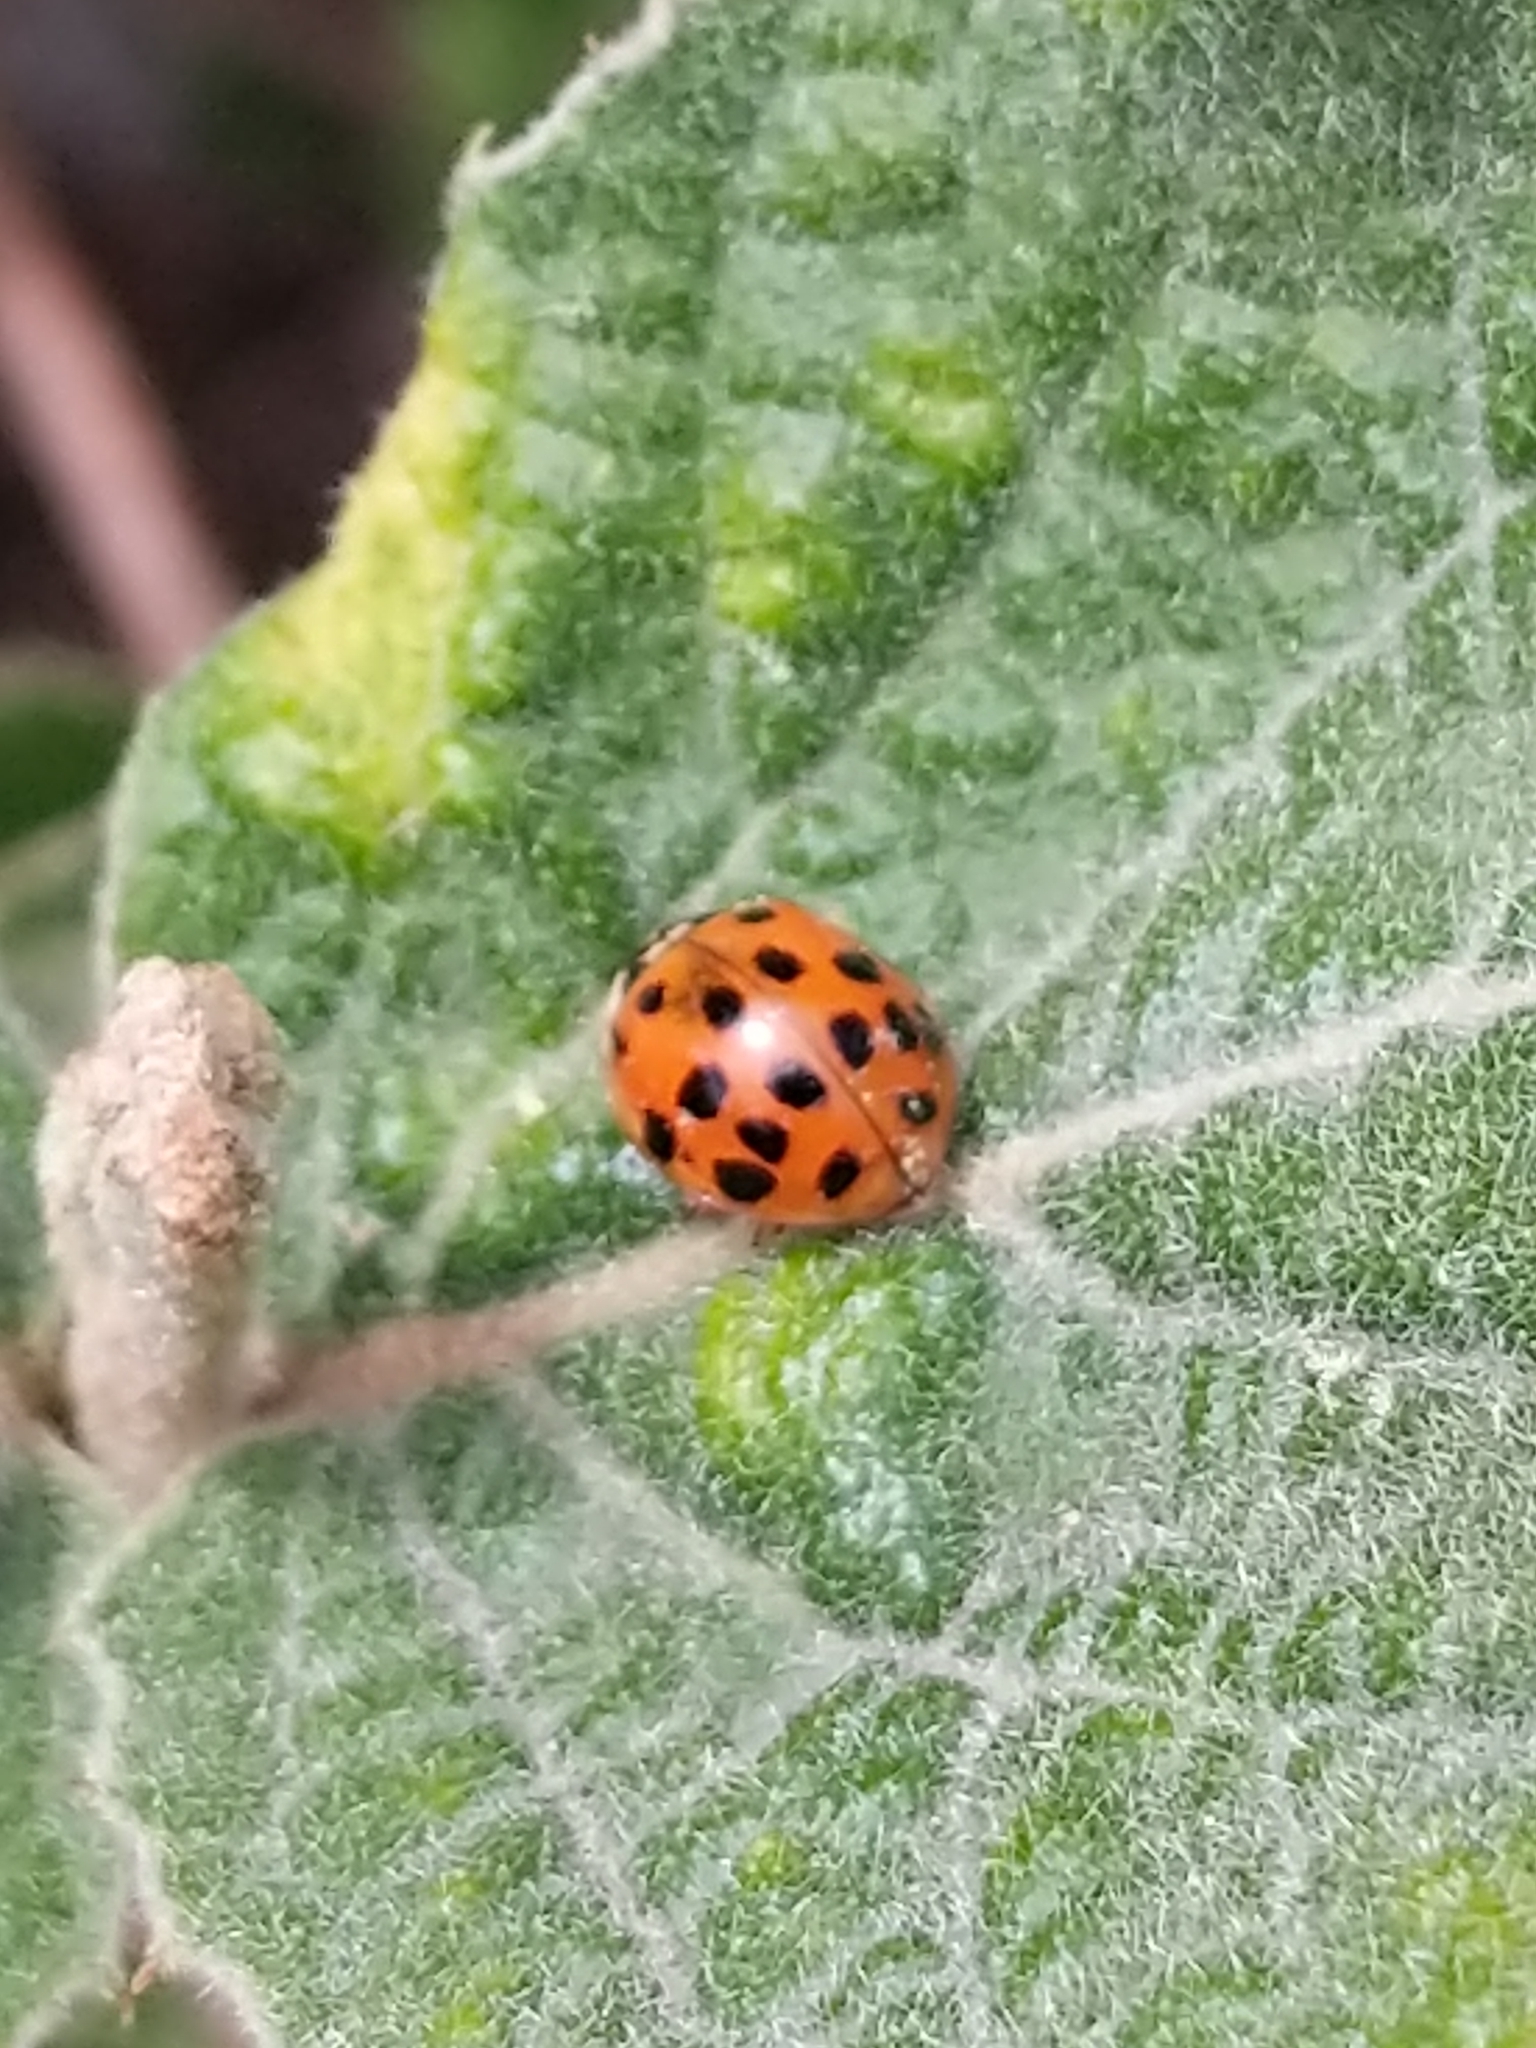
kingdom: Animalia
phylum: Arthropoda
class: Insecta
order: Coleoptera
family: Coccinellidae
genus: Harmonia
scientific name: Harmonia axyridis
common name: Harlequin ladybird
